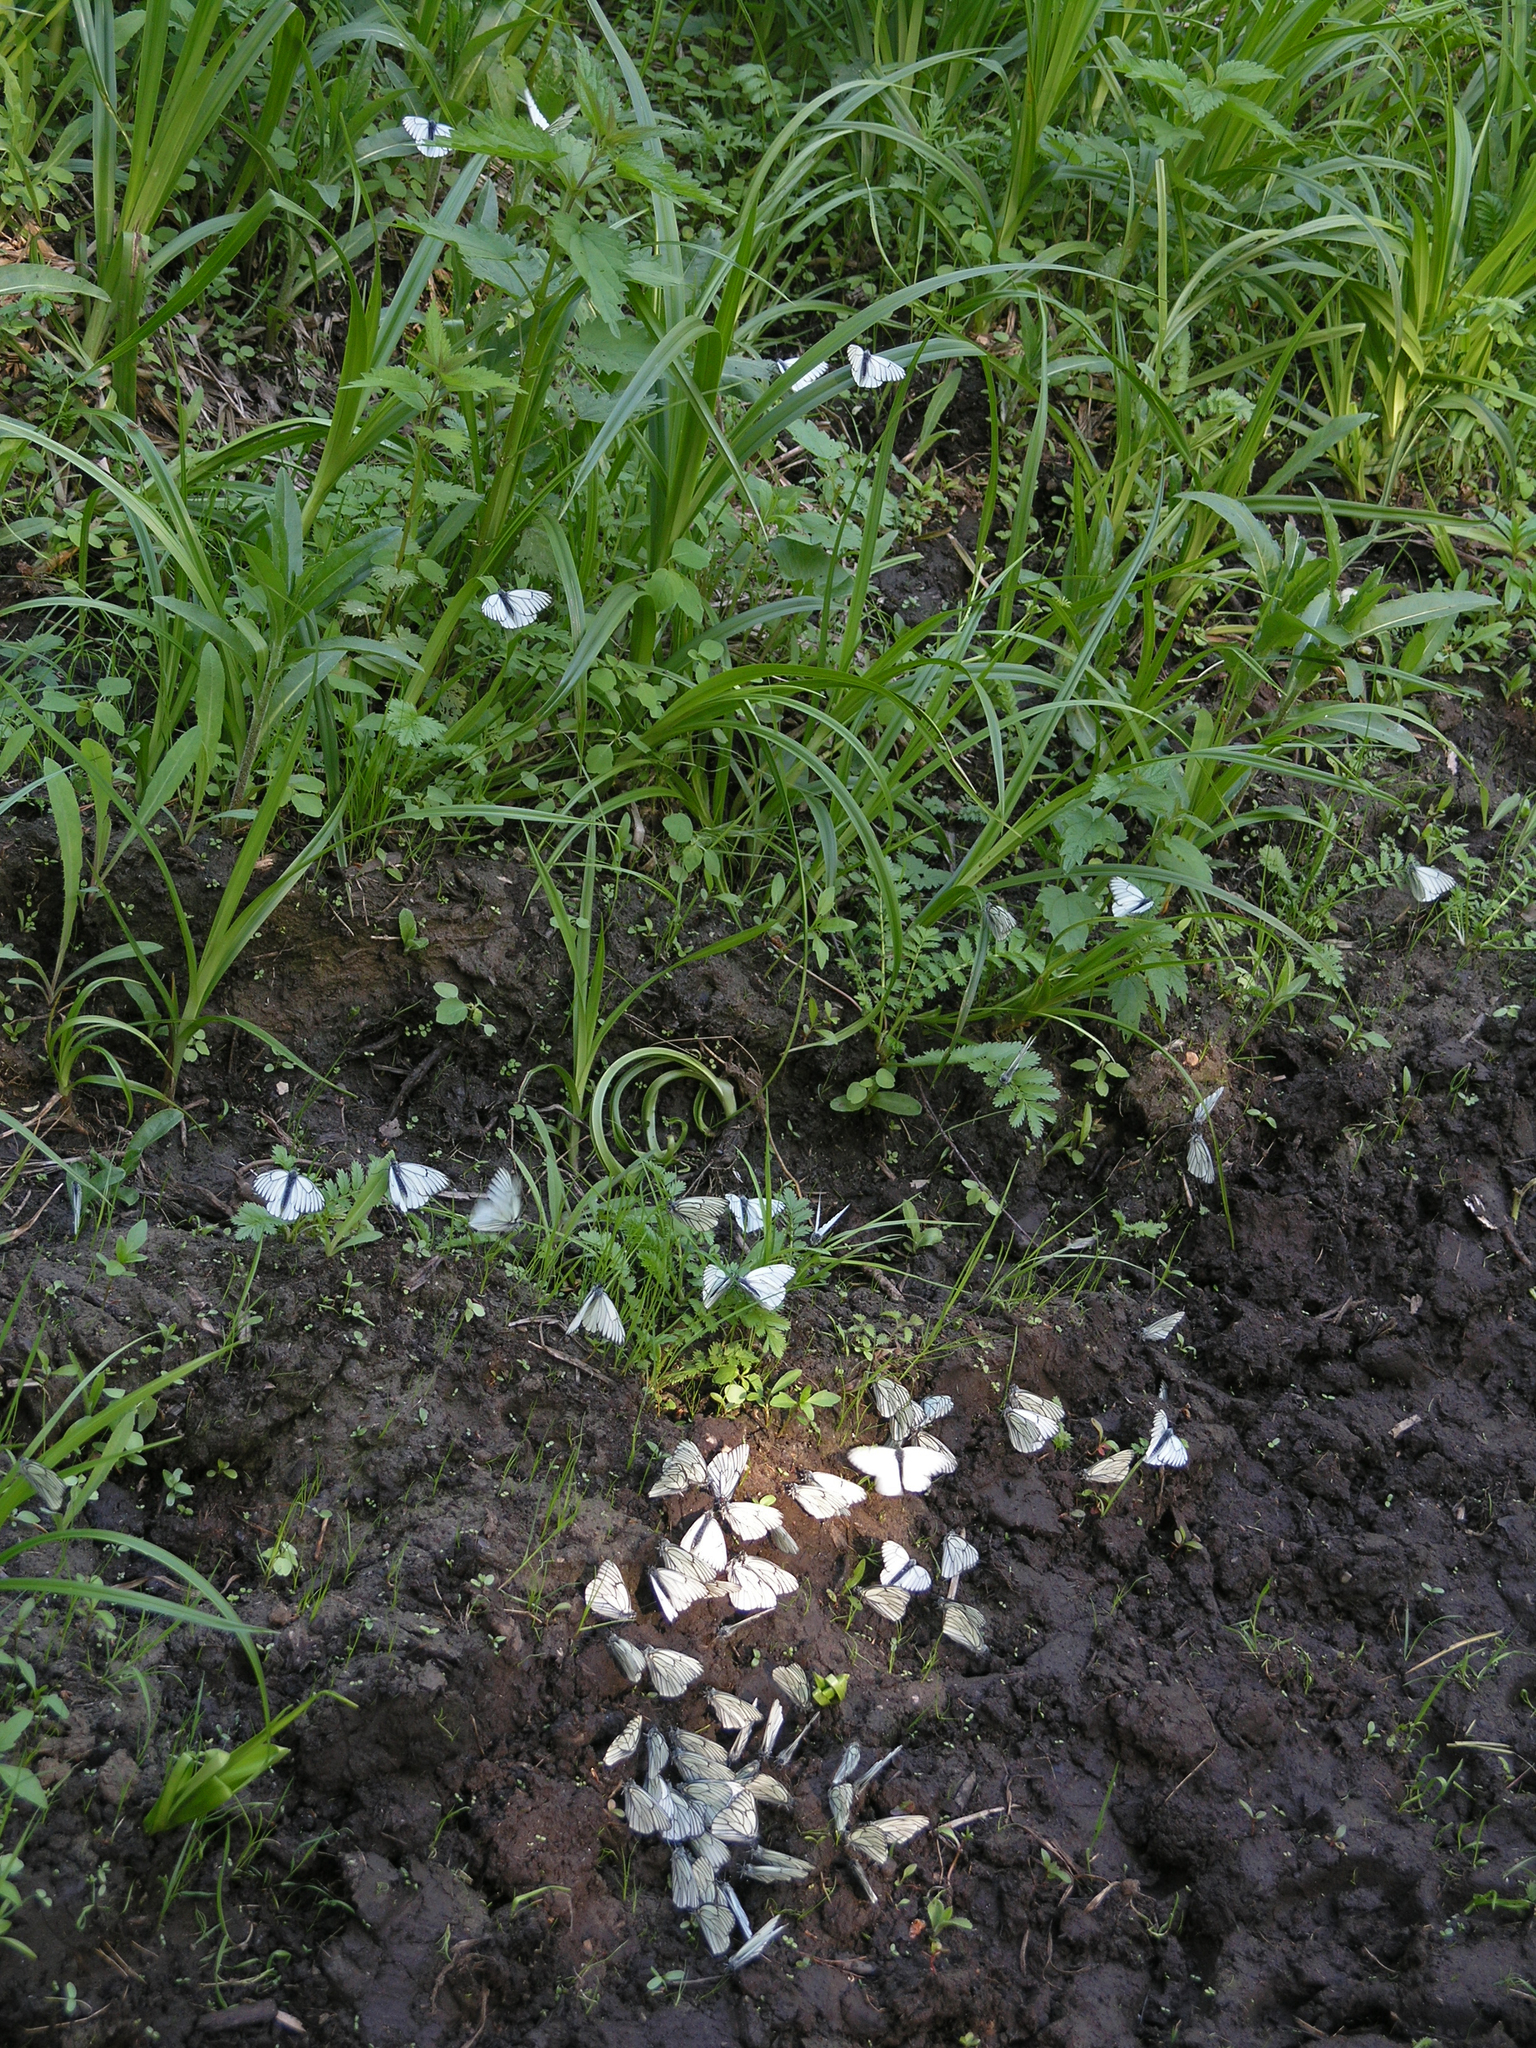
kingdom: Animalia
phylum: Arthropoda
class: Insecta
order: Lepidoptera
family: Pieridae
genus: Aporia
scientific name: Aporia crataegi
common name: Black-veined white
